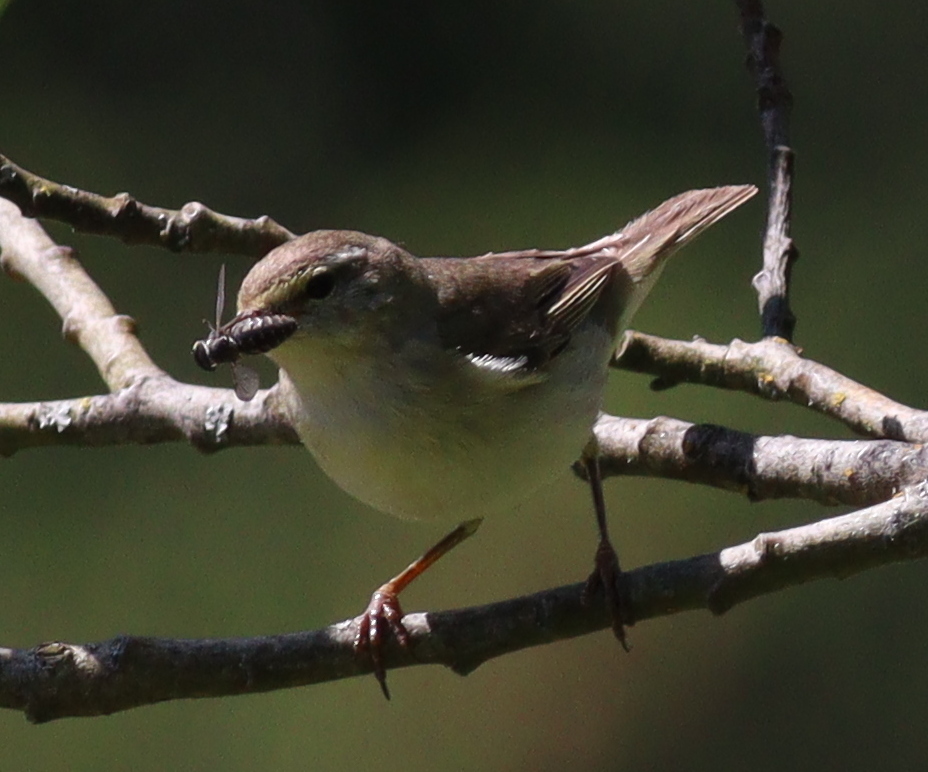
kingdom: Animalia
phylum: Chordata
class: Aves
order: Passeriformes
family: Phylloscopidae
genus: Phylloscopus
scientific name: Phylloscopus trochilus
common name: Willow warbler
